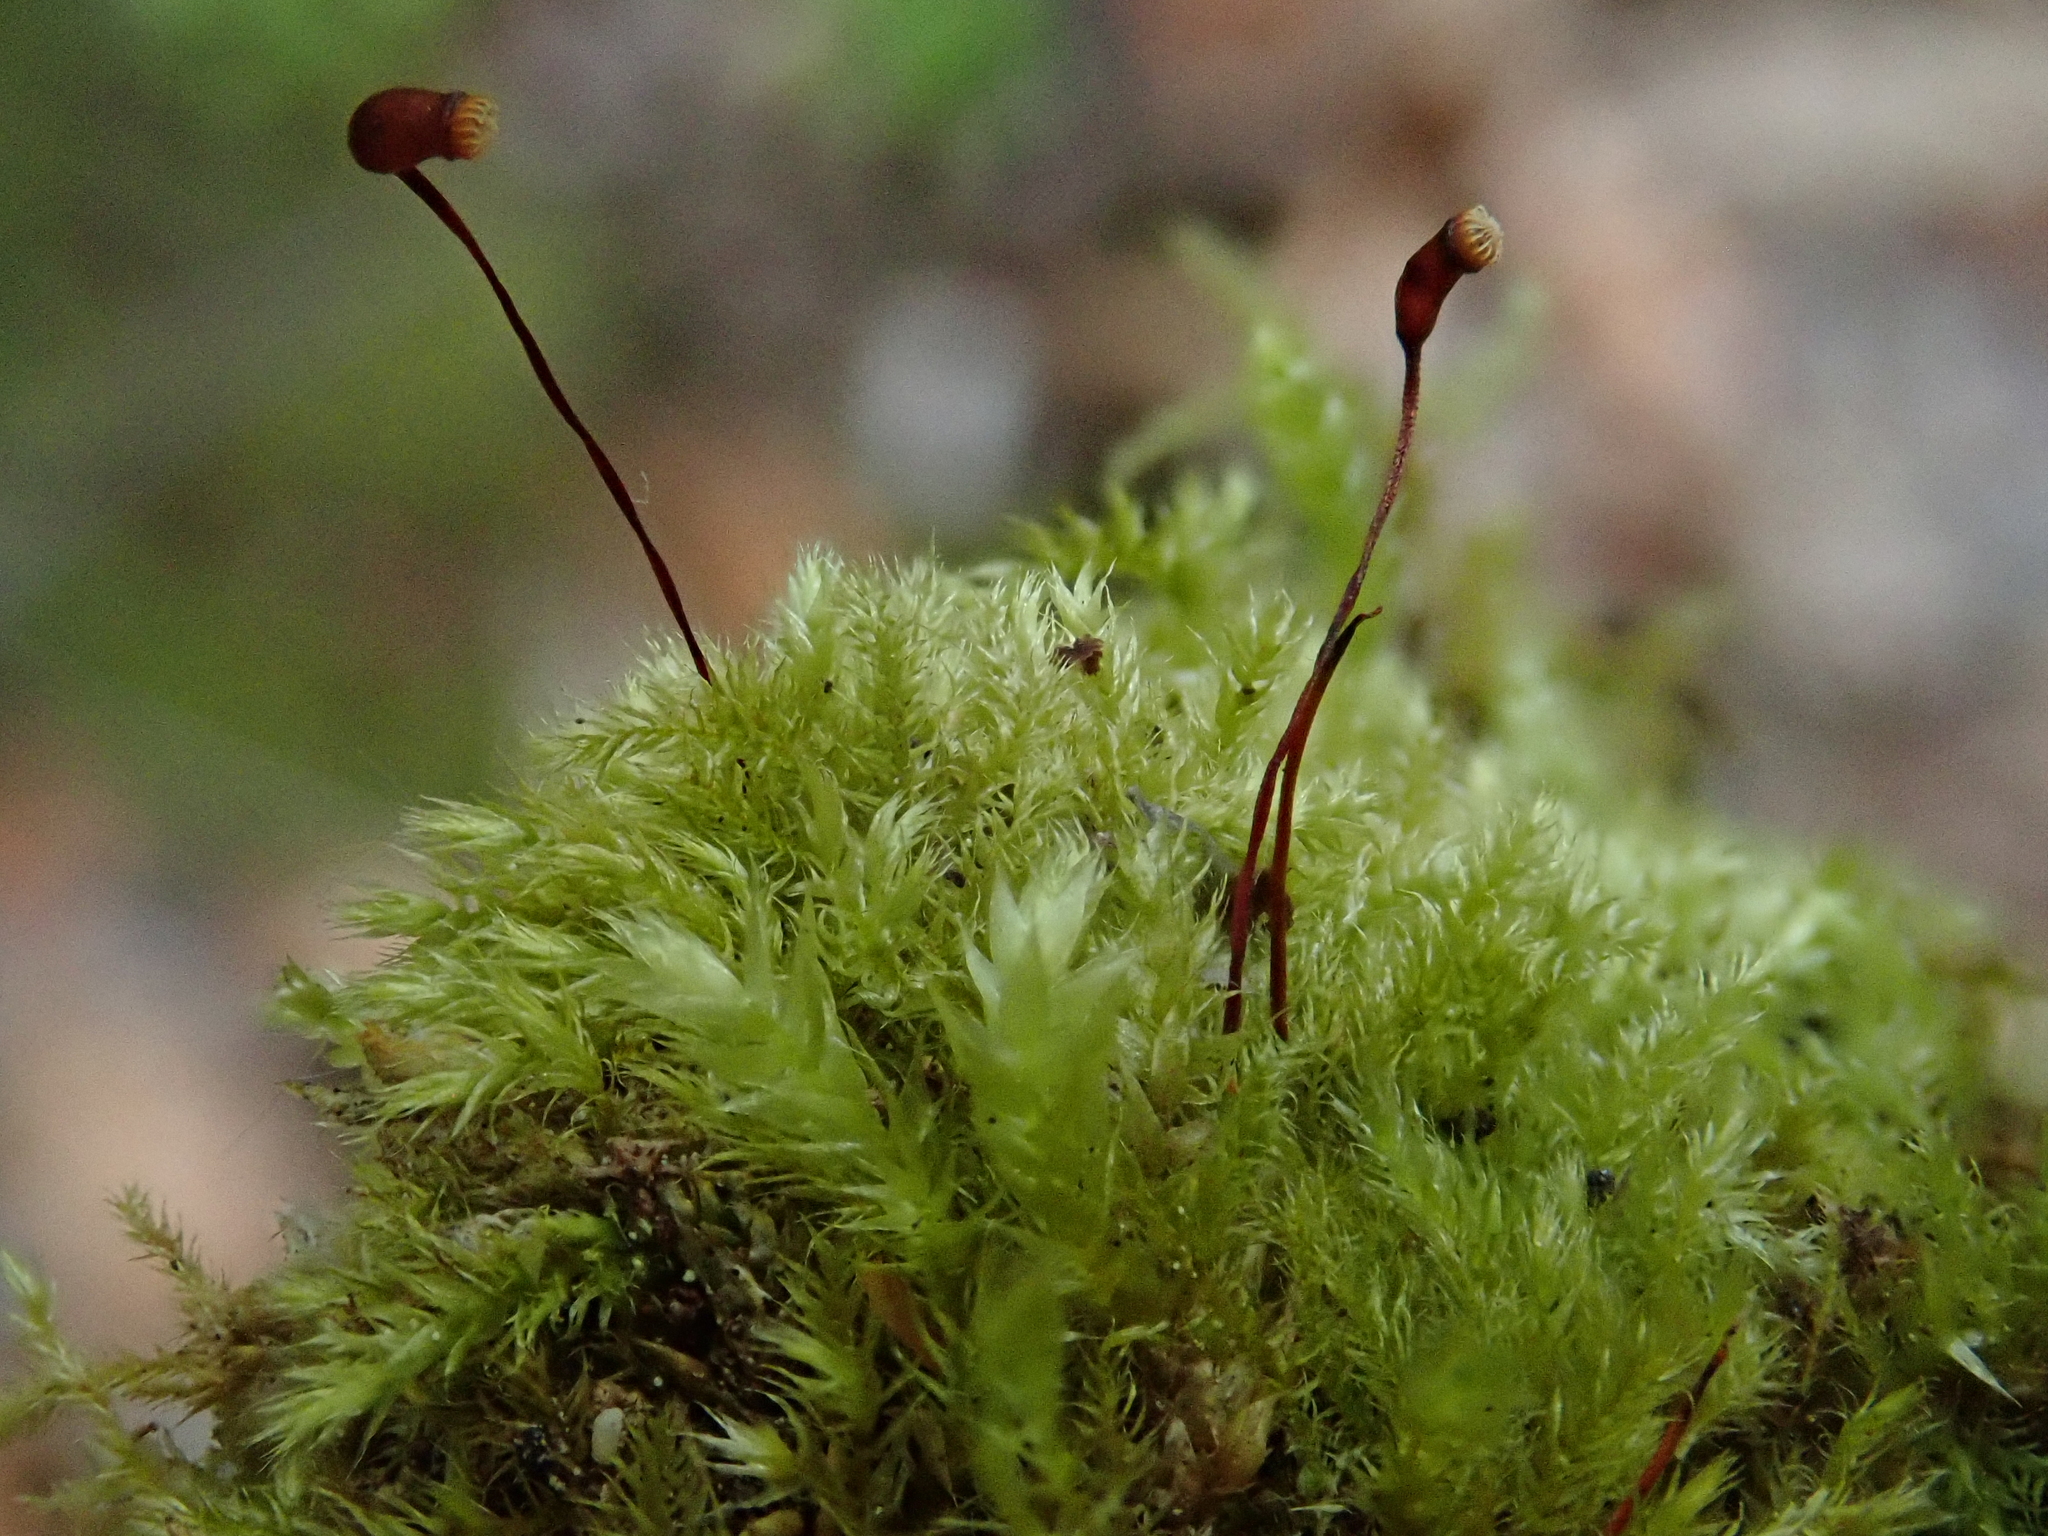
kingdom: Plantae
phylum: Bryophyta
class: Bryopsida
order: Hypnales
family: Brachytheciaceae
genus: Brachytheciastrum
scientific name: Brachytheciastrum velutinum
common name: Velvet feather-moss
